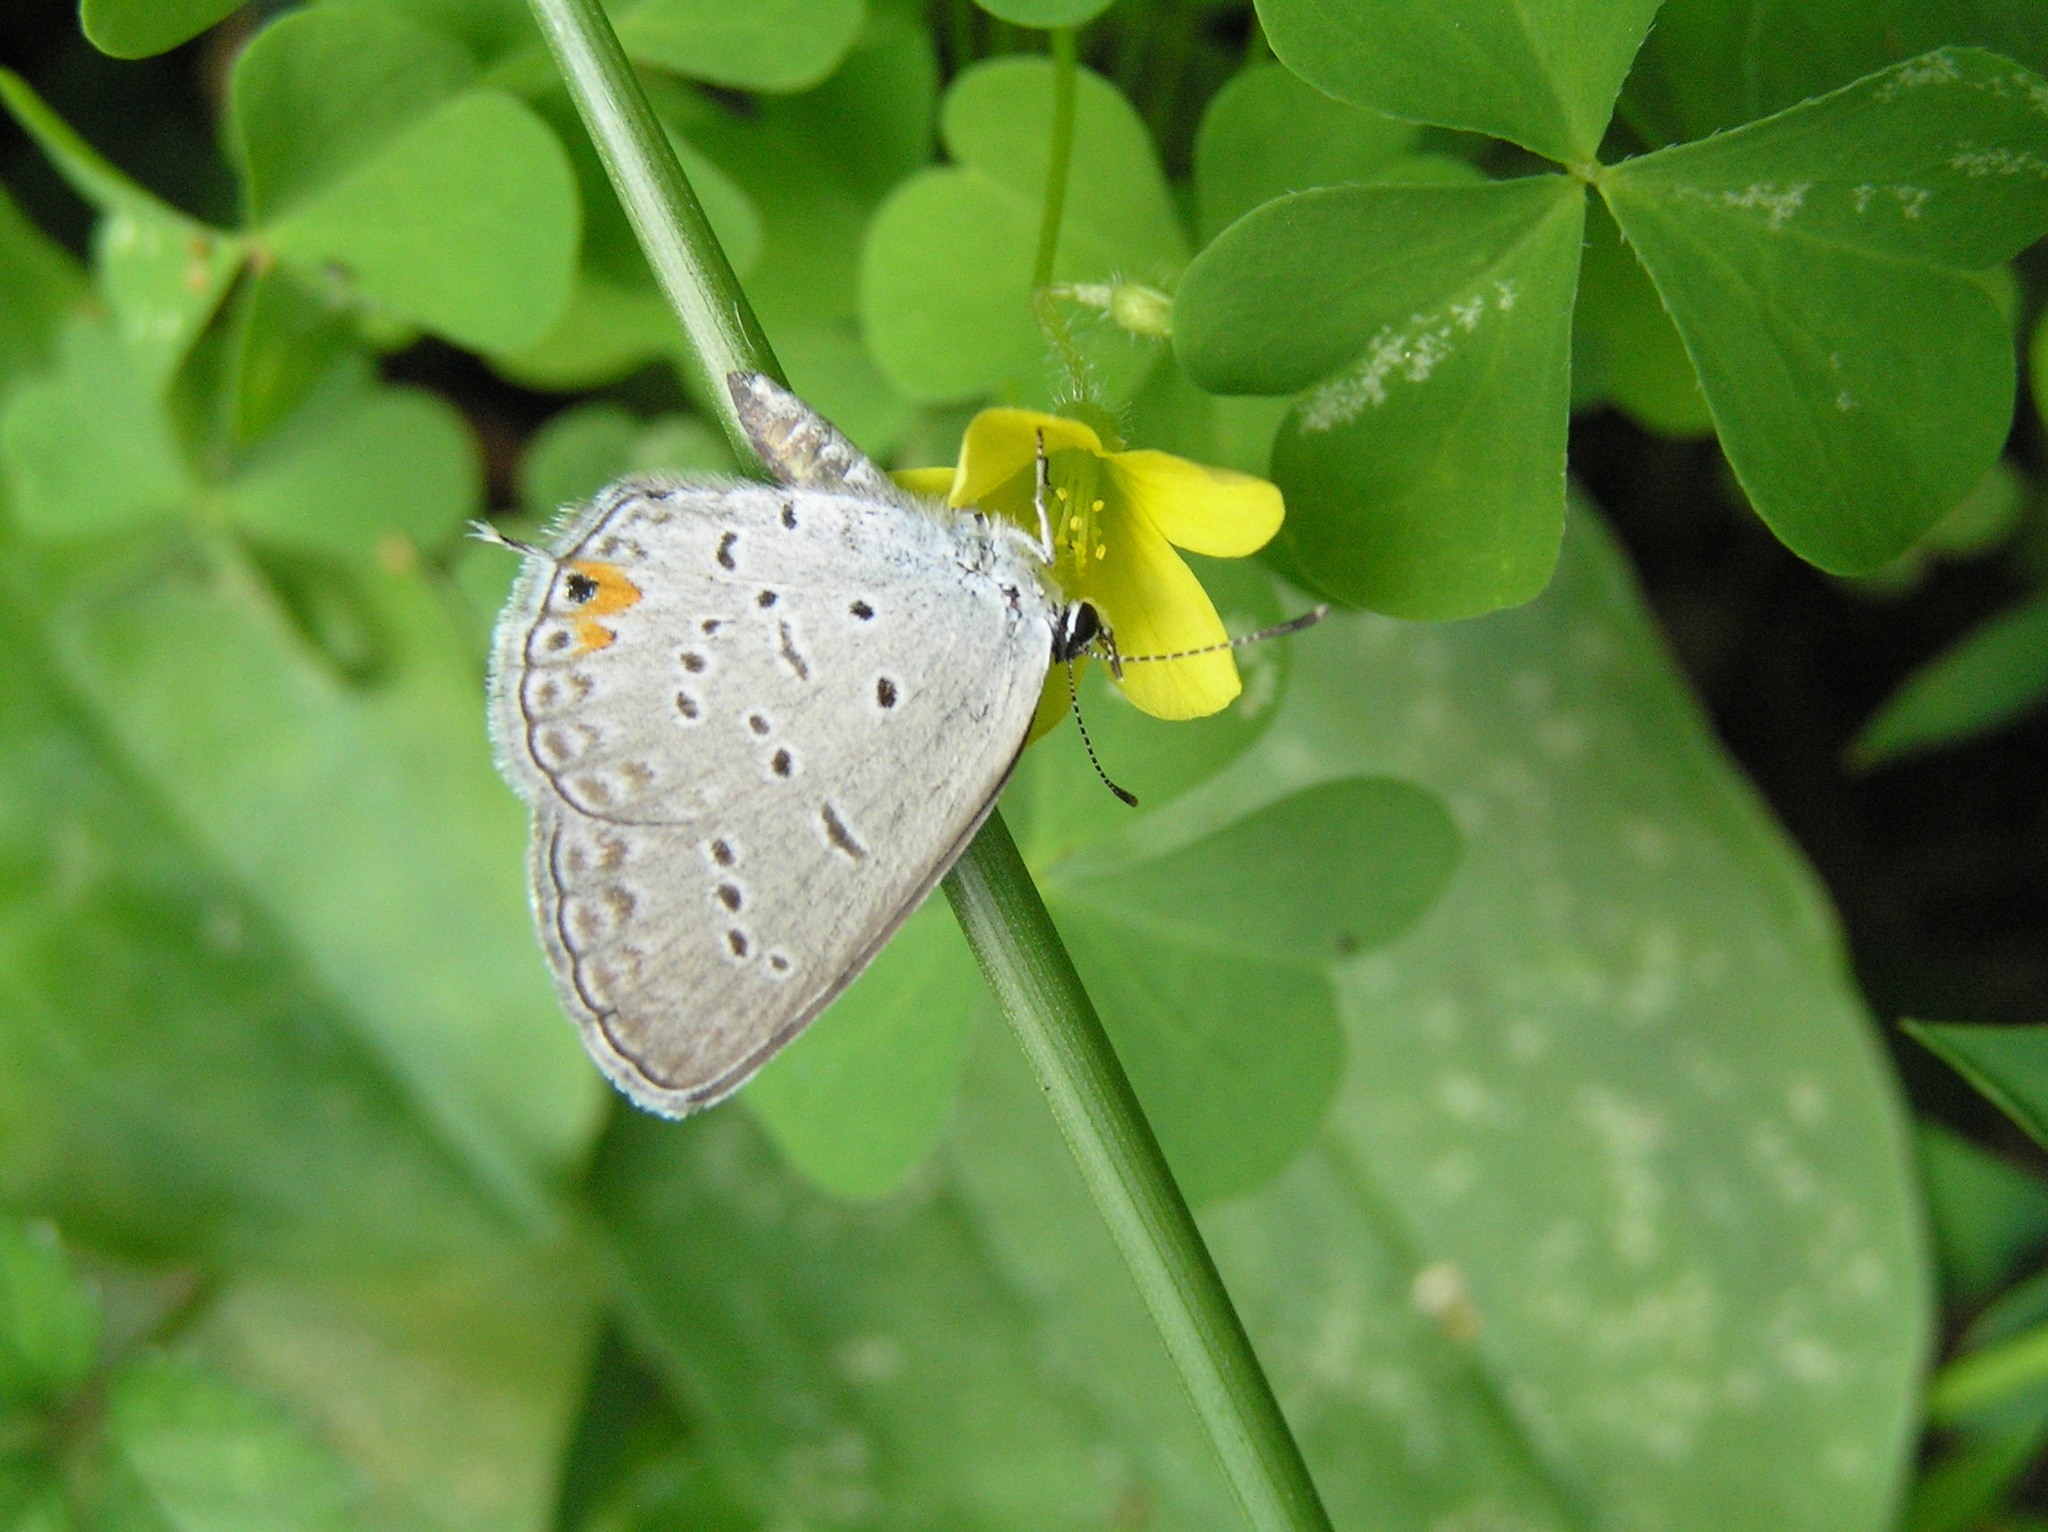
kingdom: Animalia
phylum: Arthropoda
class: Insecta
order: Lepidoptera
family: Lycaenidae
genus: Elkalyce
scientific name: Elkalyce comyntas
